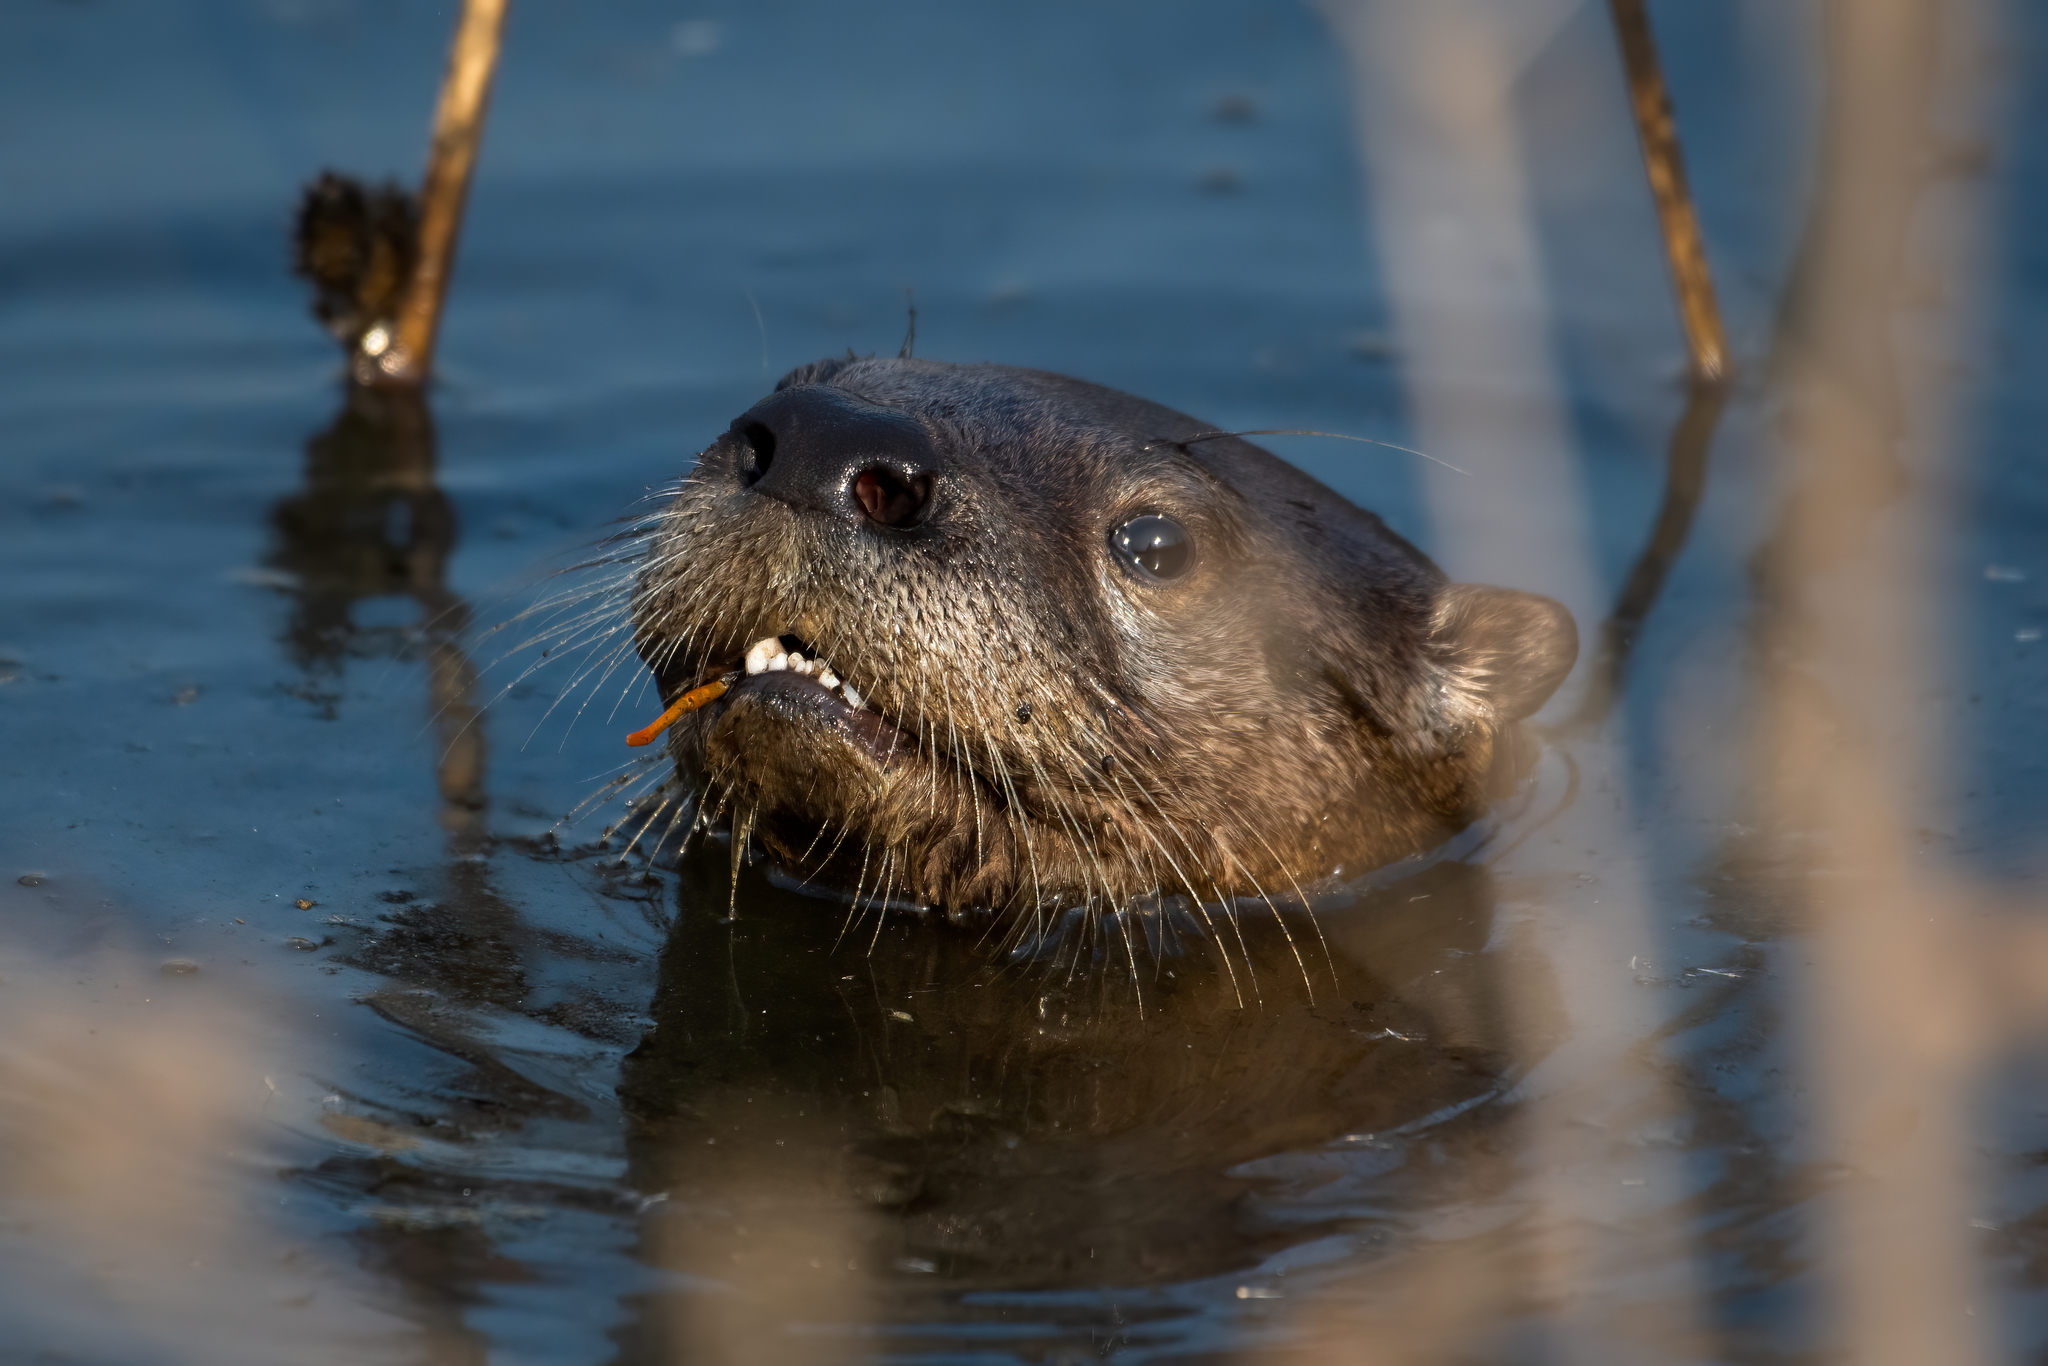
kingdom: Animalia
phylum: Chordata
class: Mammalia
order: Carnivora
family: Mustelidae
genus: Lontra
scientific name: Lontra canadensis
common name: North american river otter
